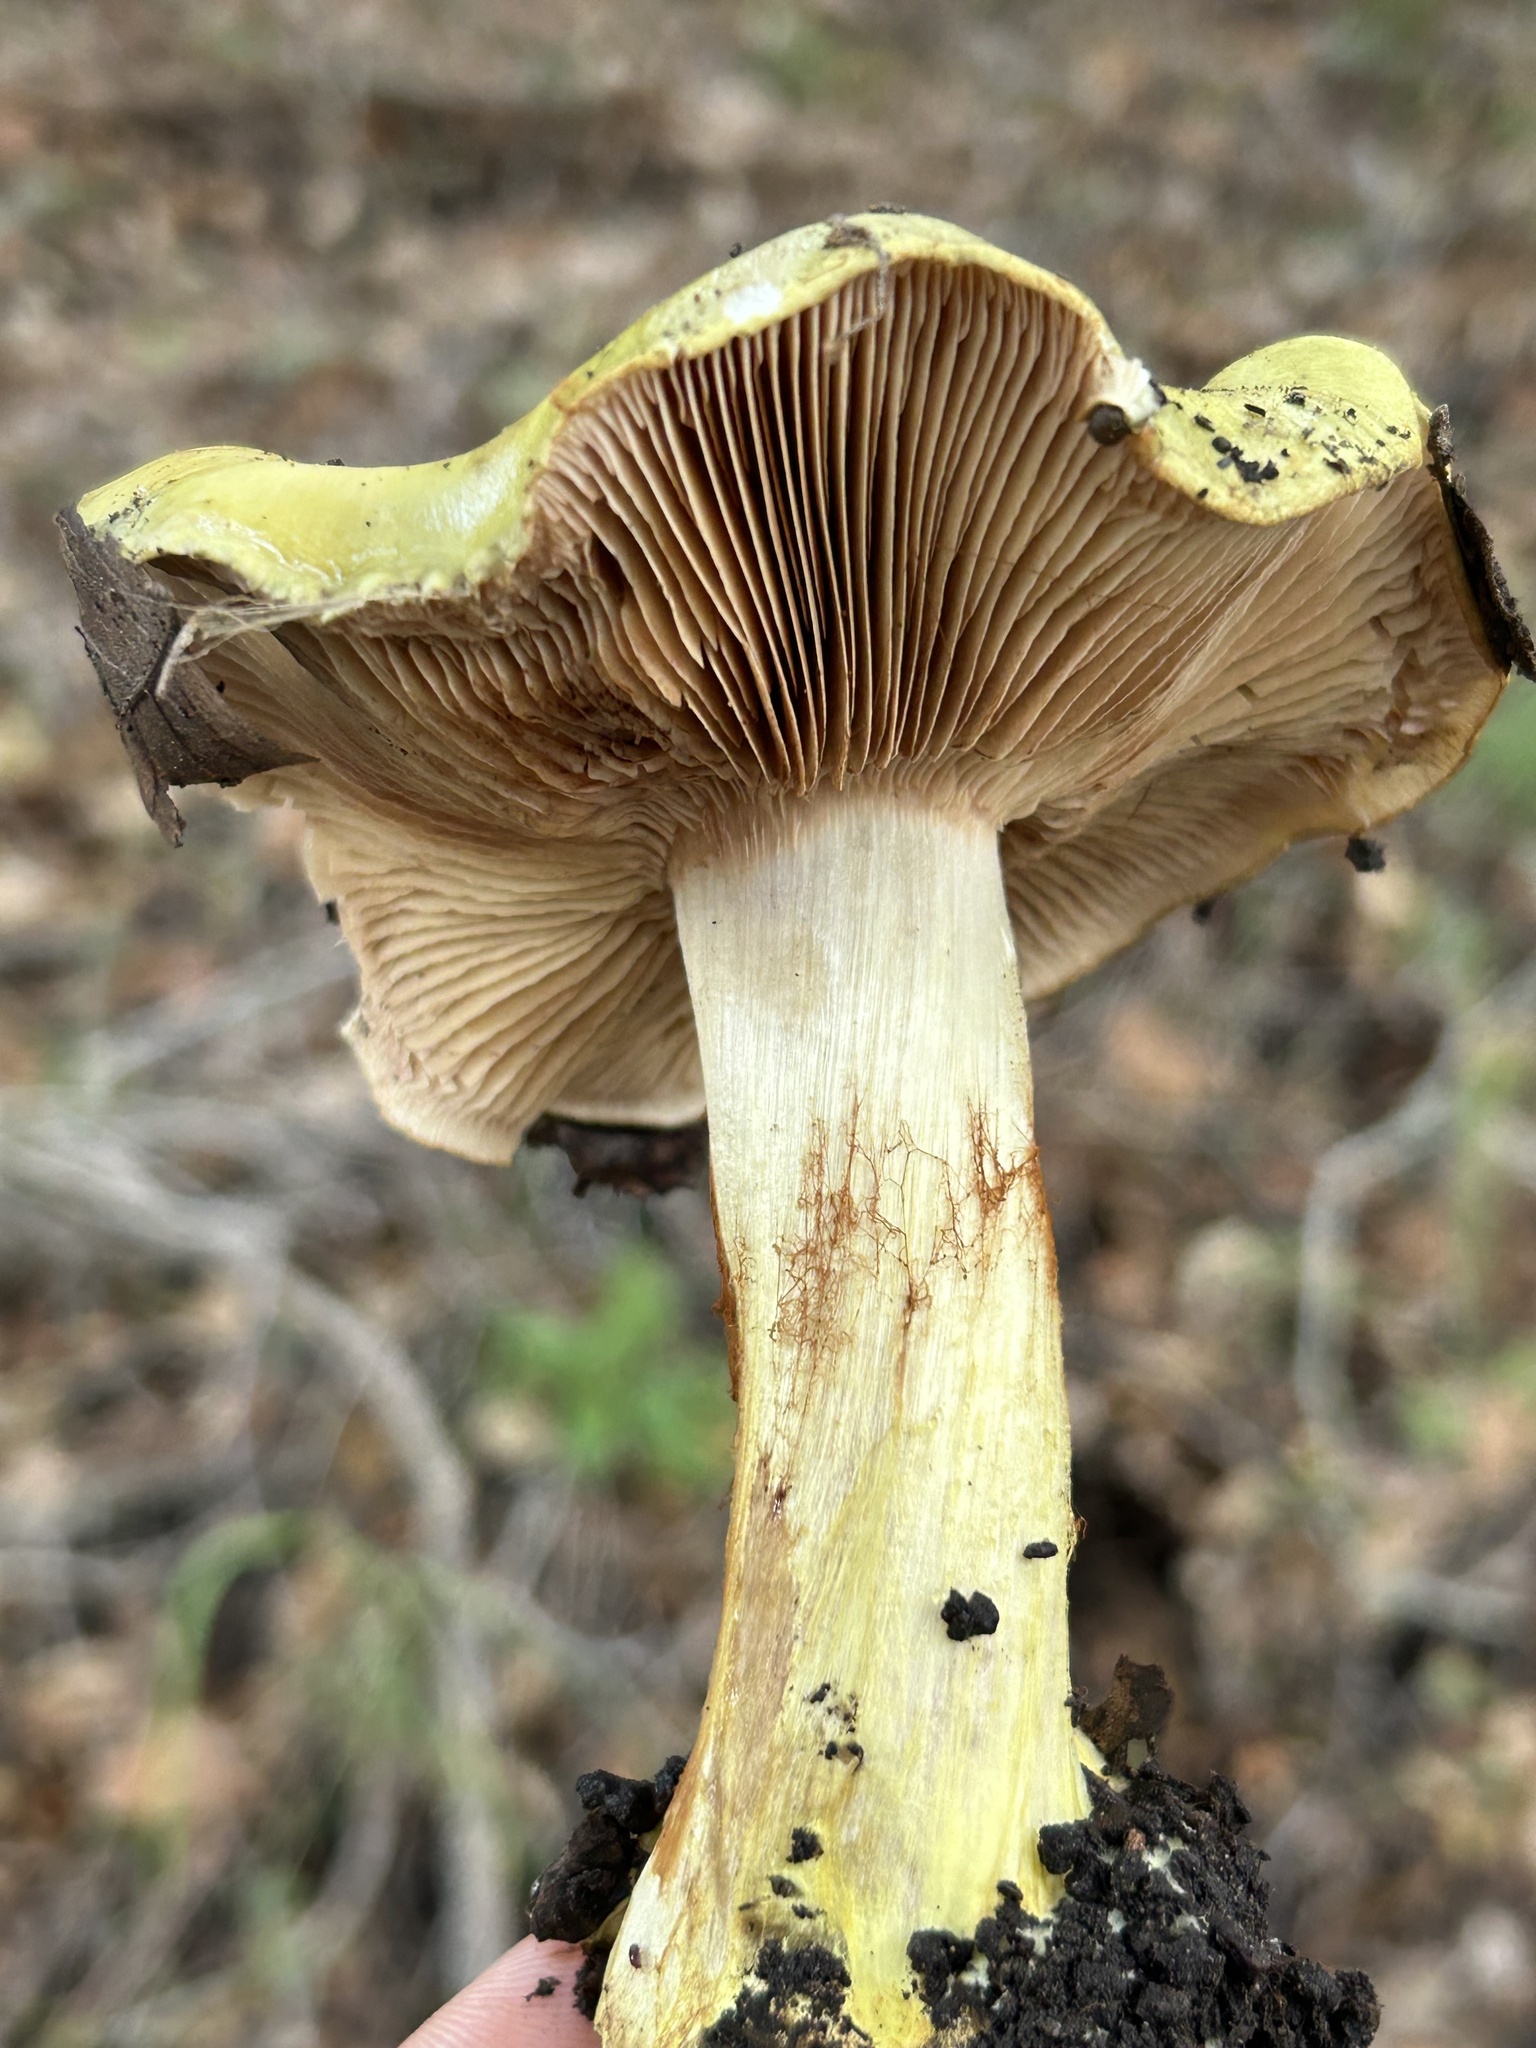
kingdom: Fungi
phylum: Basidiomycota
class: Agaricomycetes
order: Agaricales
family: Cortinariaceae
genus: Calonarius
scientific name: Calonarius viridirubescens
